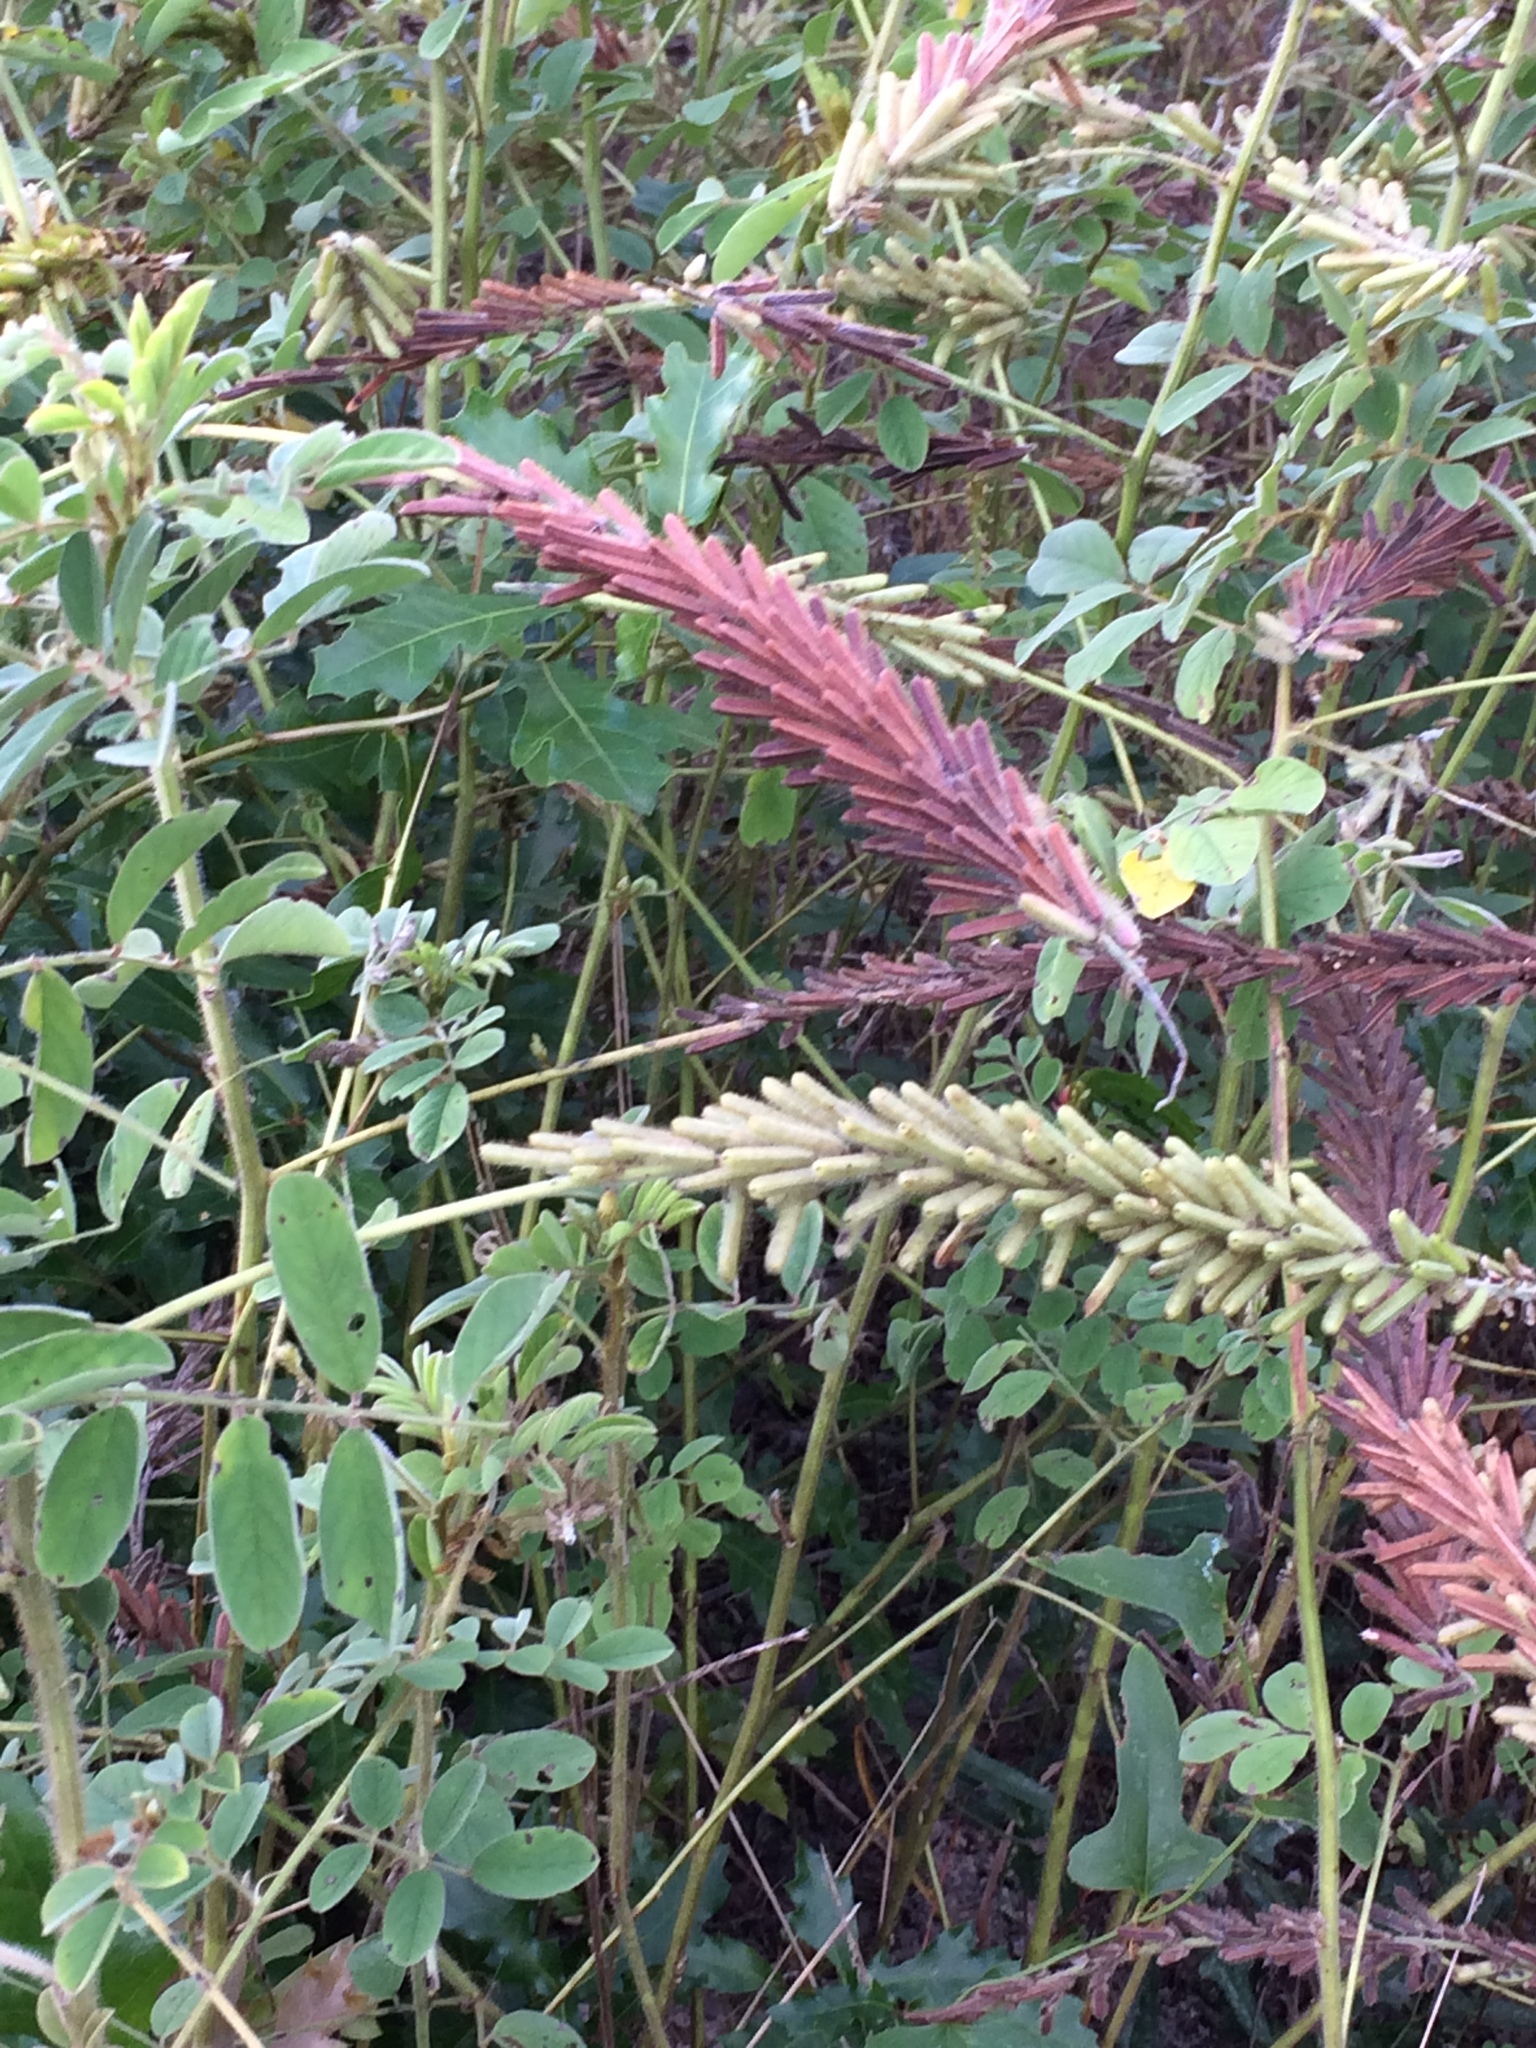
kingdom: Plantae
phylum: Tracheophyta
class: Magnoliopsida
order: Fabales
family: Fabaceae
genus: Indigofera
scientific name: Indigofera hirsuta
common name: Hairy indigo
